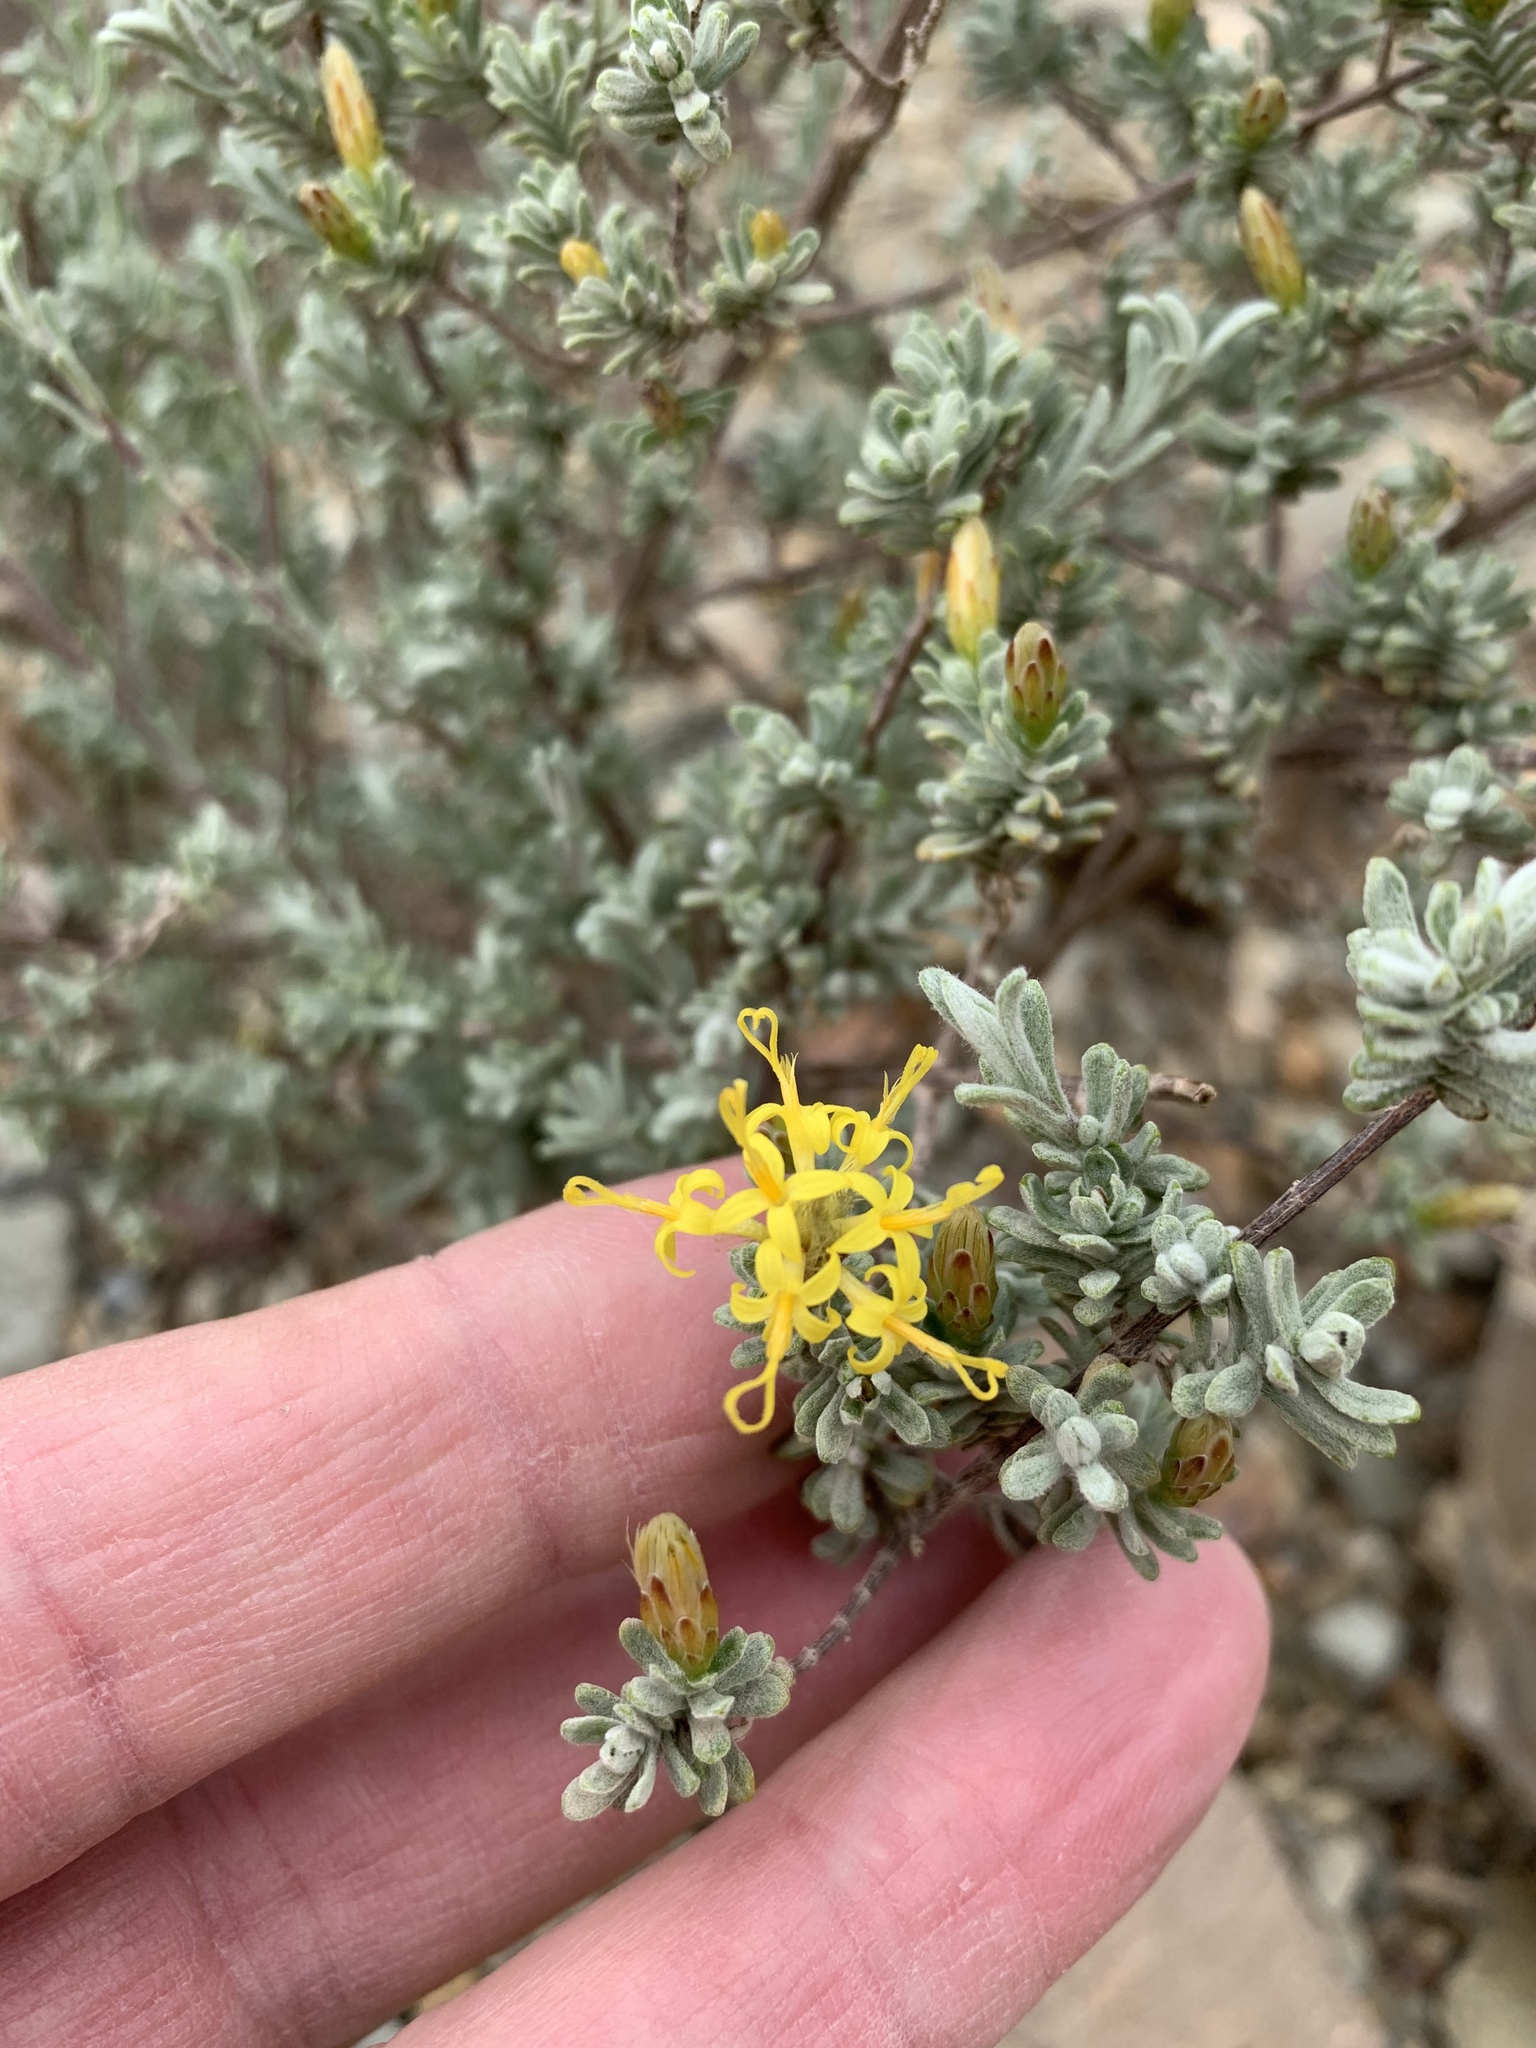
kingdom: Plantae
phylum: Tracheophyta
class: Magnoliopsida
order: Asterales
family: Asteraceae
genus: Pteronia
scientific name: Pteronia incana
